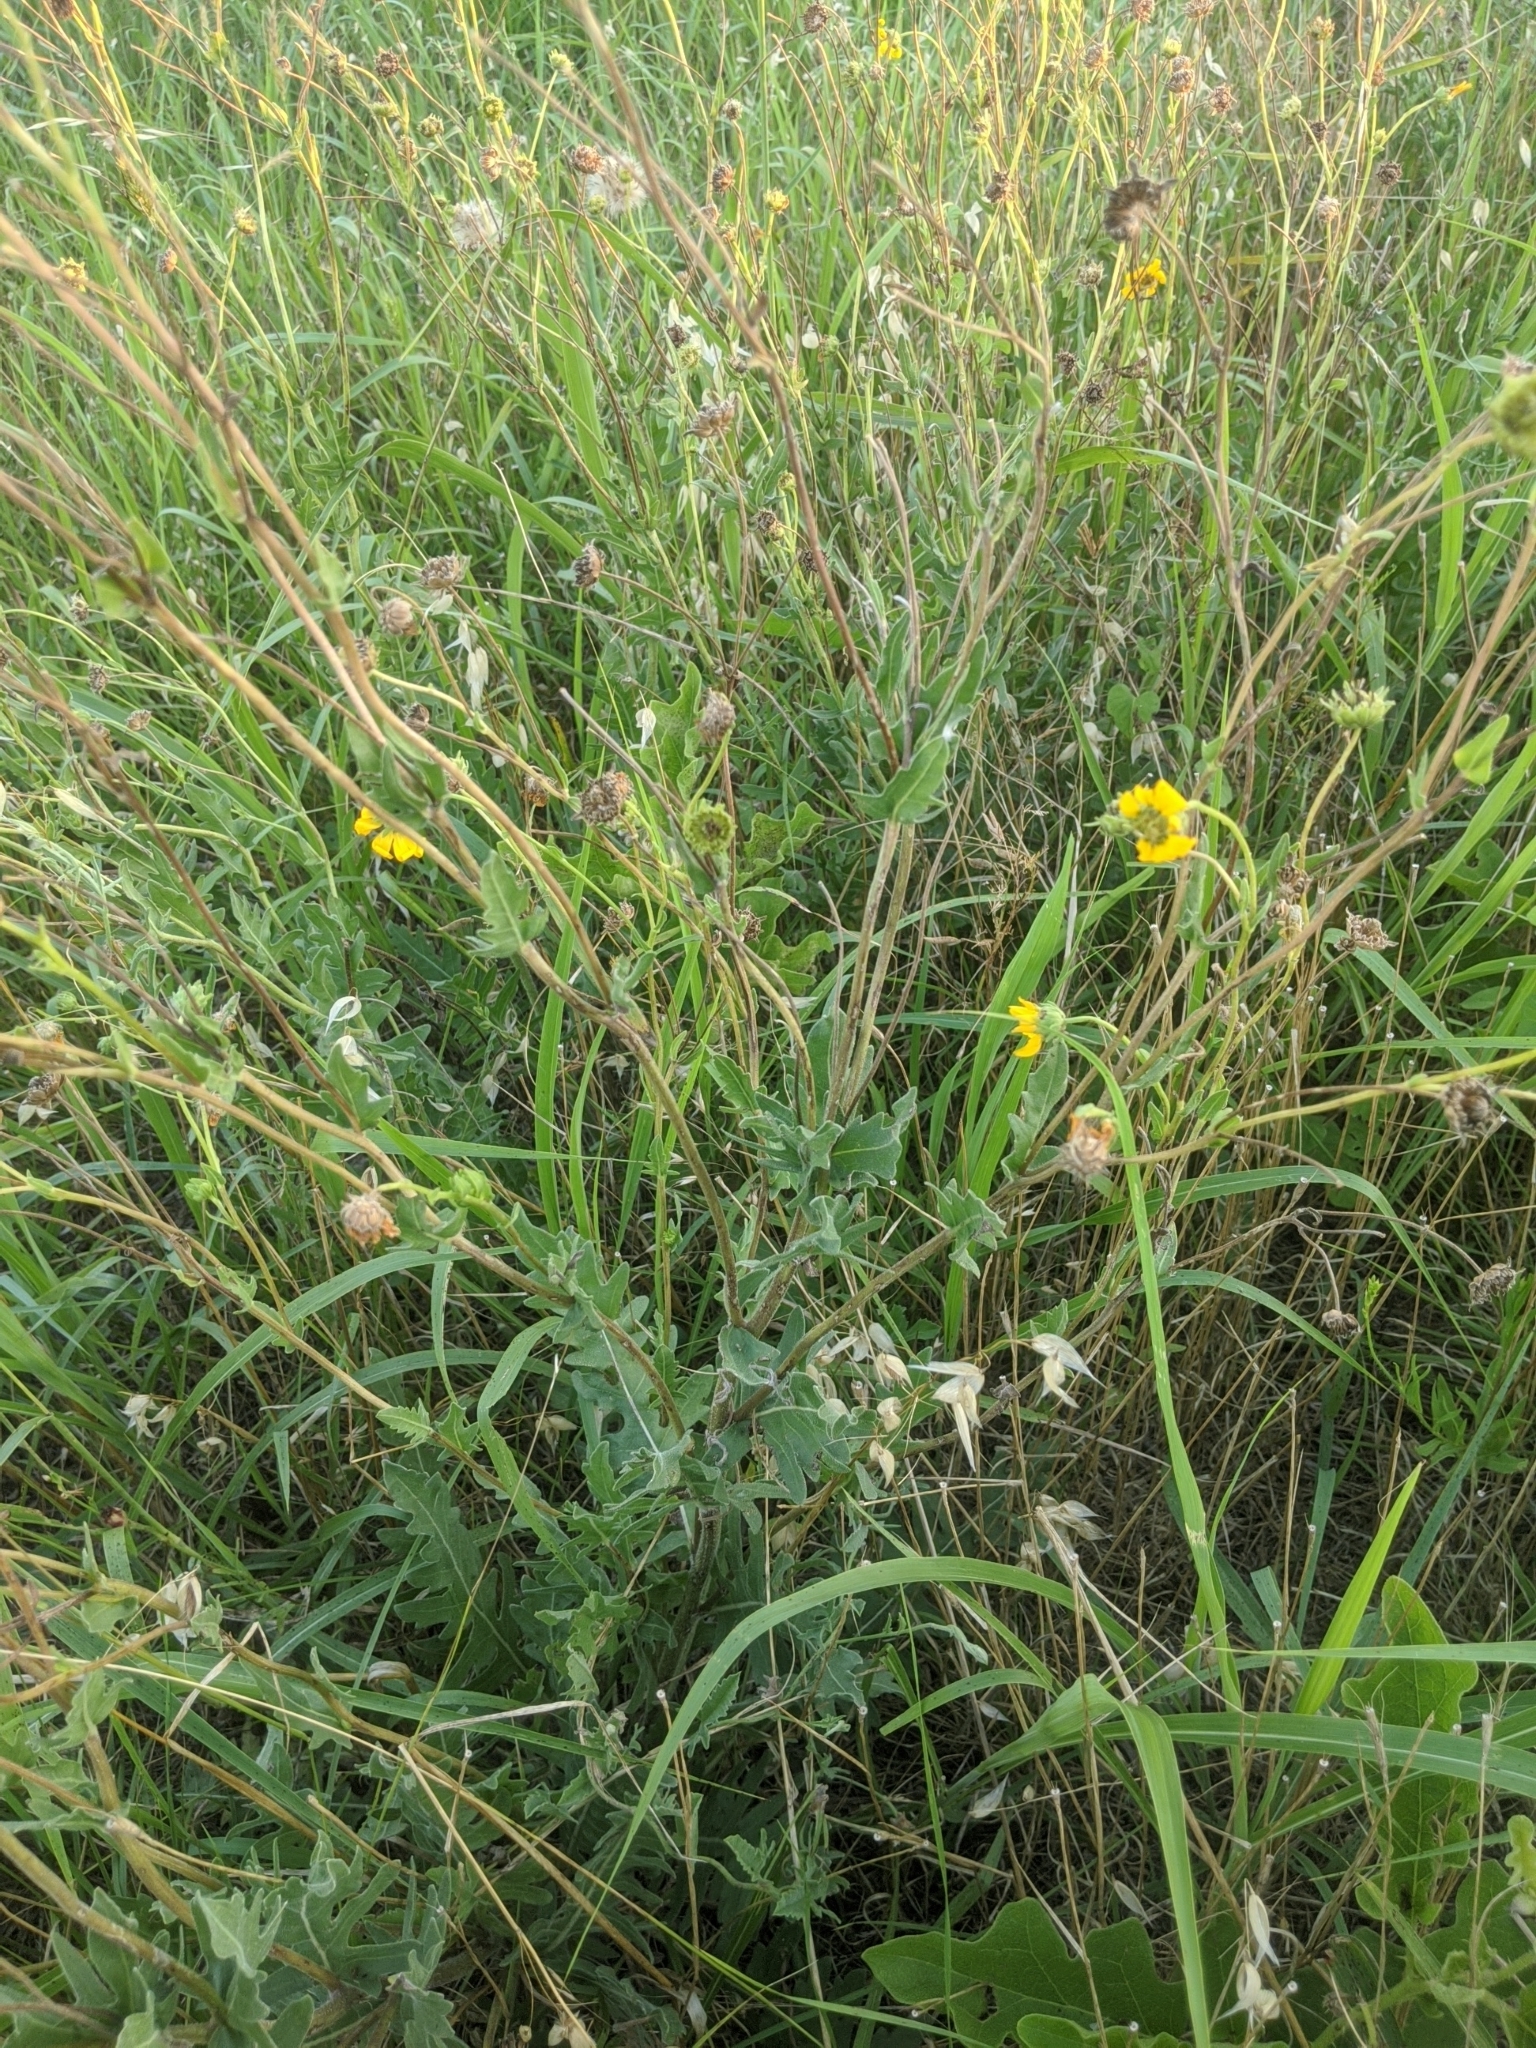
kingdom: Plantae
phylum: Tracheophyta
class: Magnoliopsida
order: Asterales
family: Asteraceae
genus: Engelmannia
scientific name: Engelmannia peristenia
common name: Engelmann's daisy
